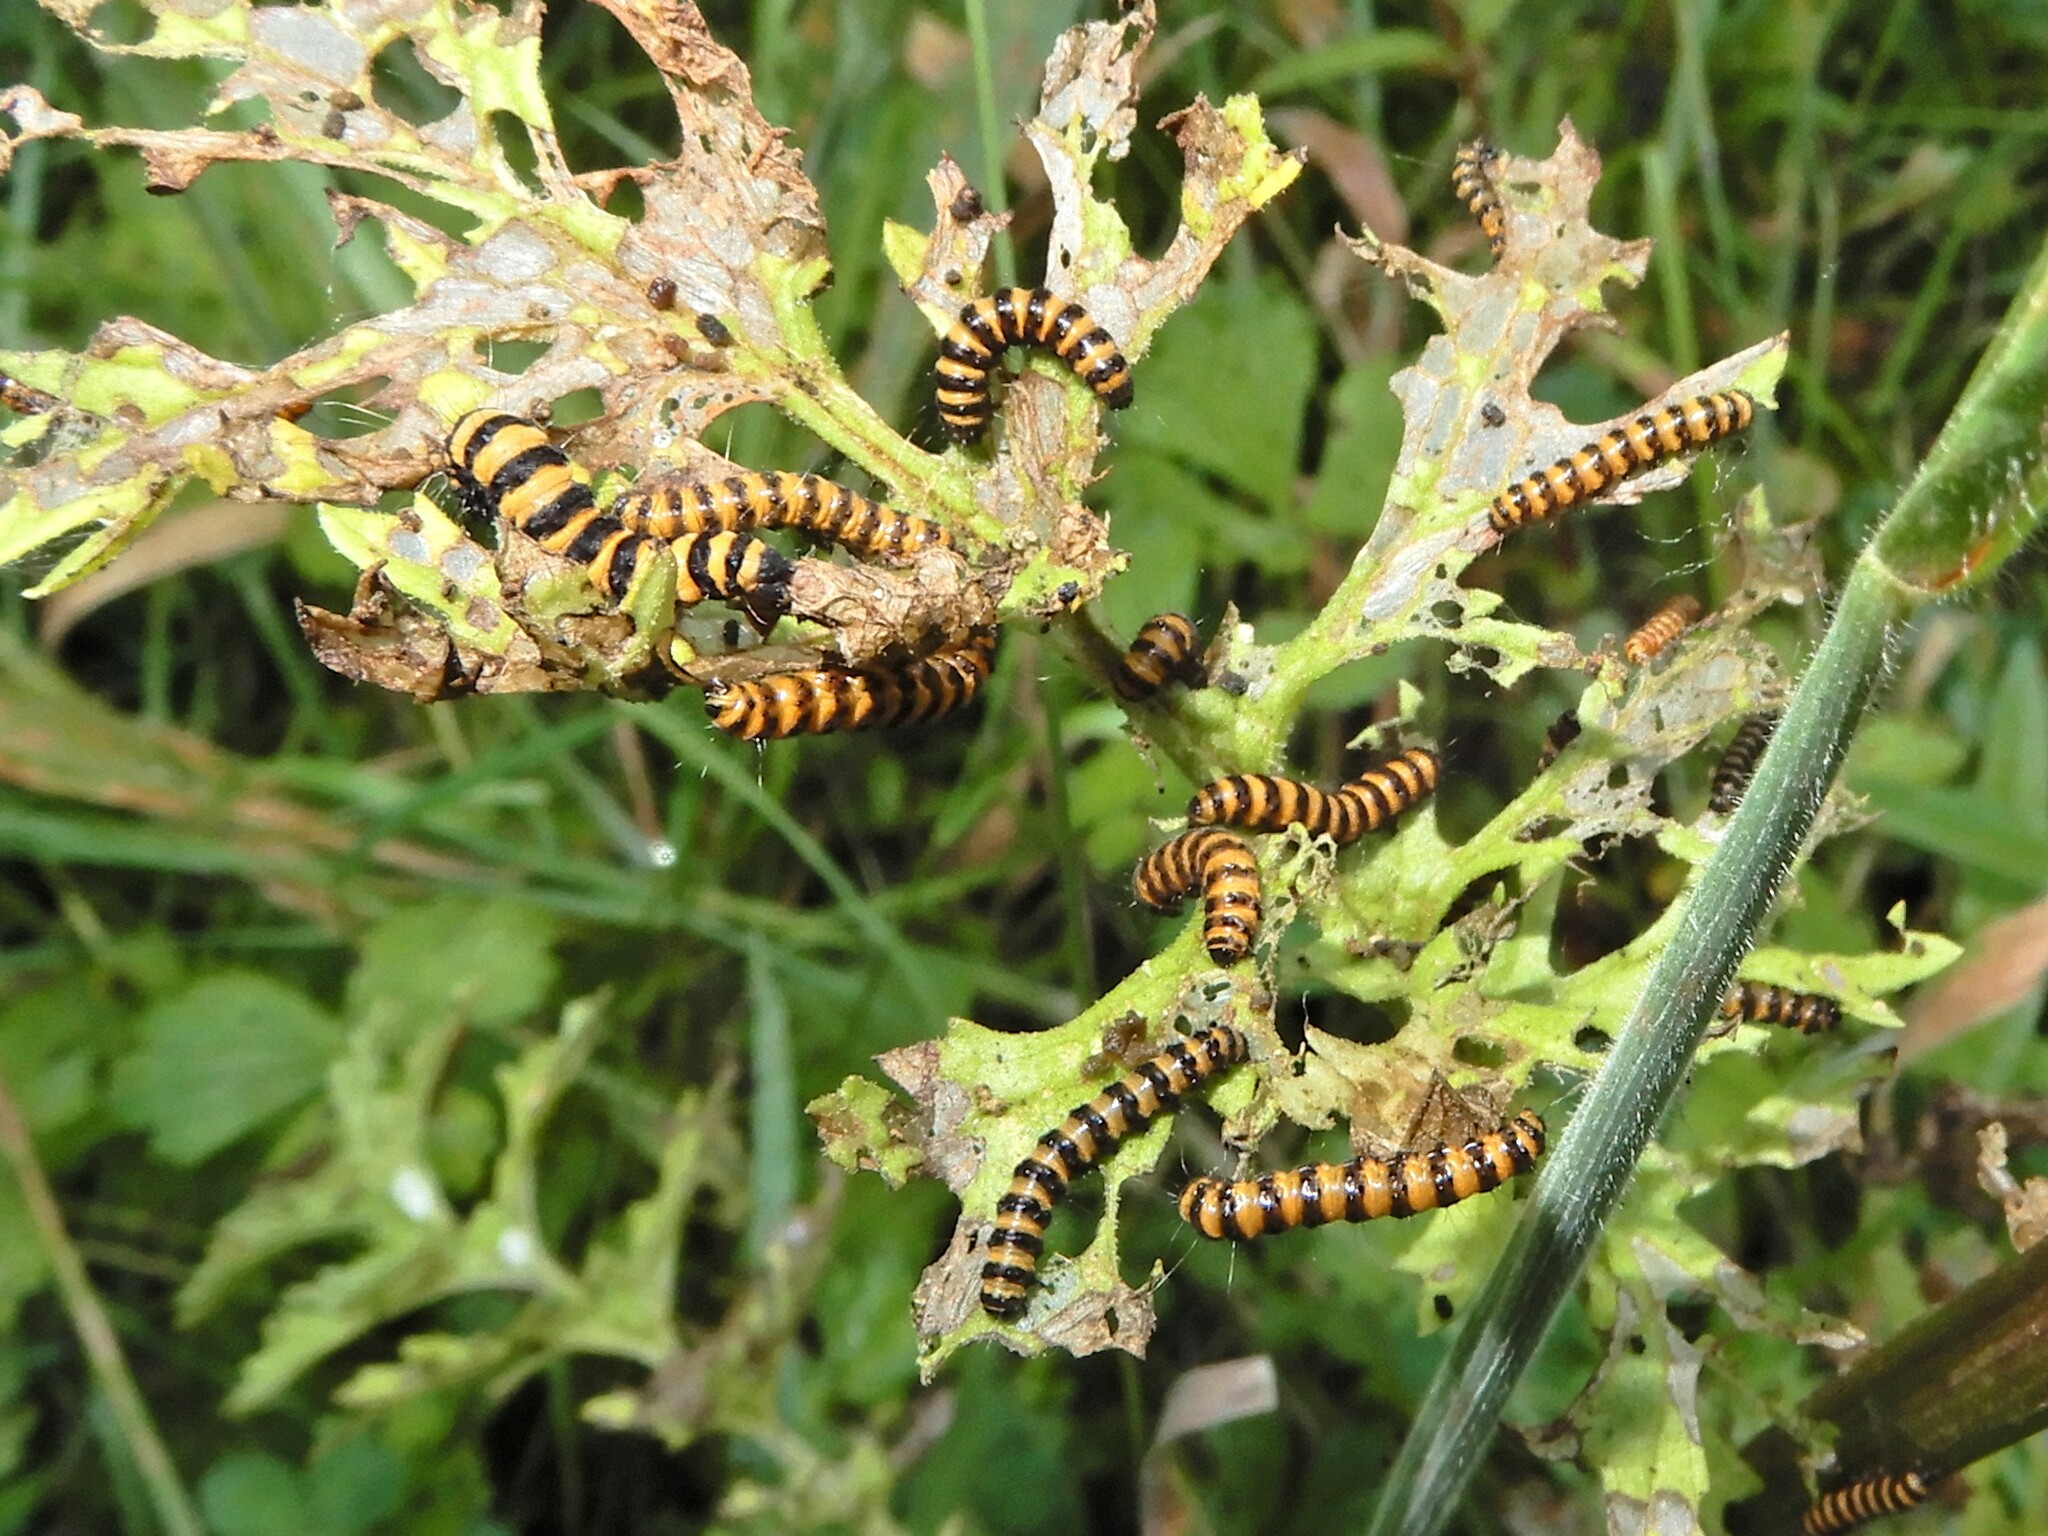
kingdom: Animalia
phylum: Arthropoda
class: Insecta
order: Lepidoptera
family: Erebidae
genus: Tyria
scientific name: Tyria jacobaeae
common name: Cinnabar
